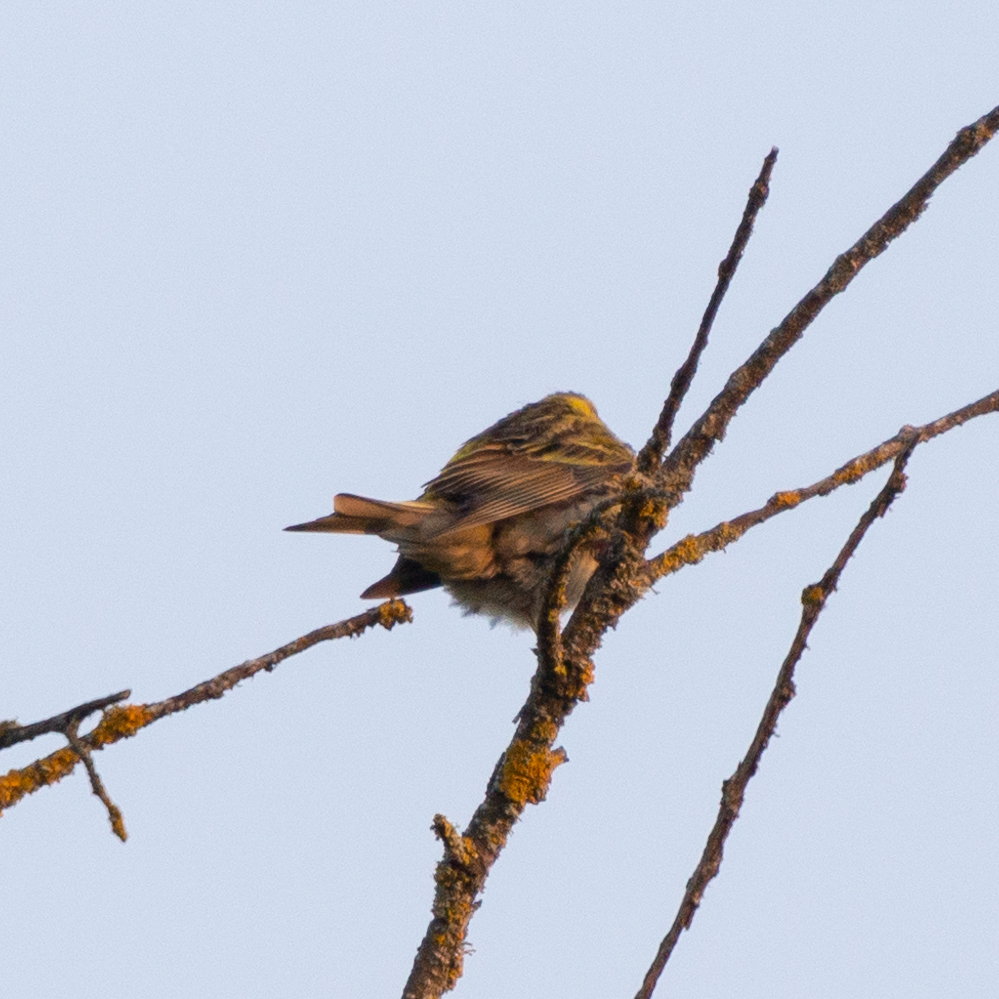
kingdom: Animalia
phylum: Chordata
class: Aves
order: Passeriformes
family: Fringillidae
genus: Serinus
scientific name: Serinus serinus
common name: European serin
